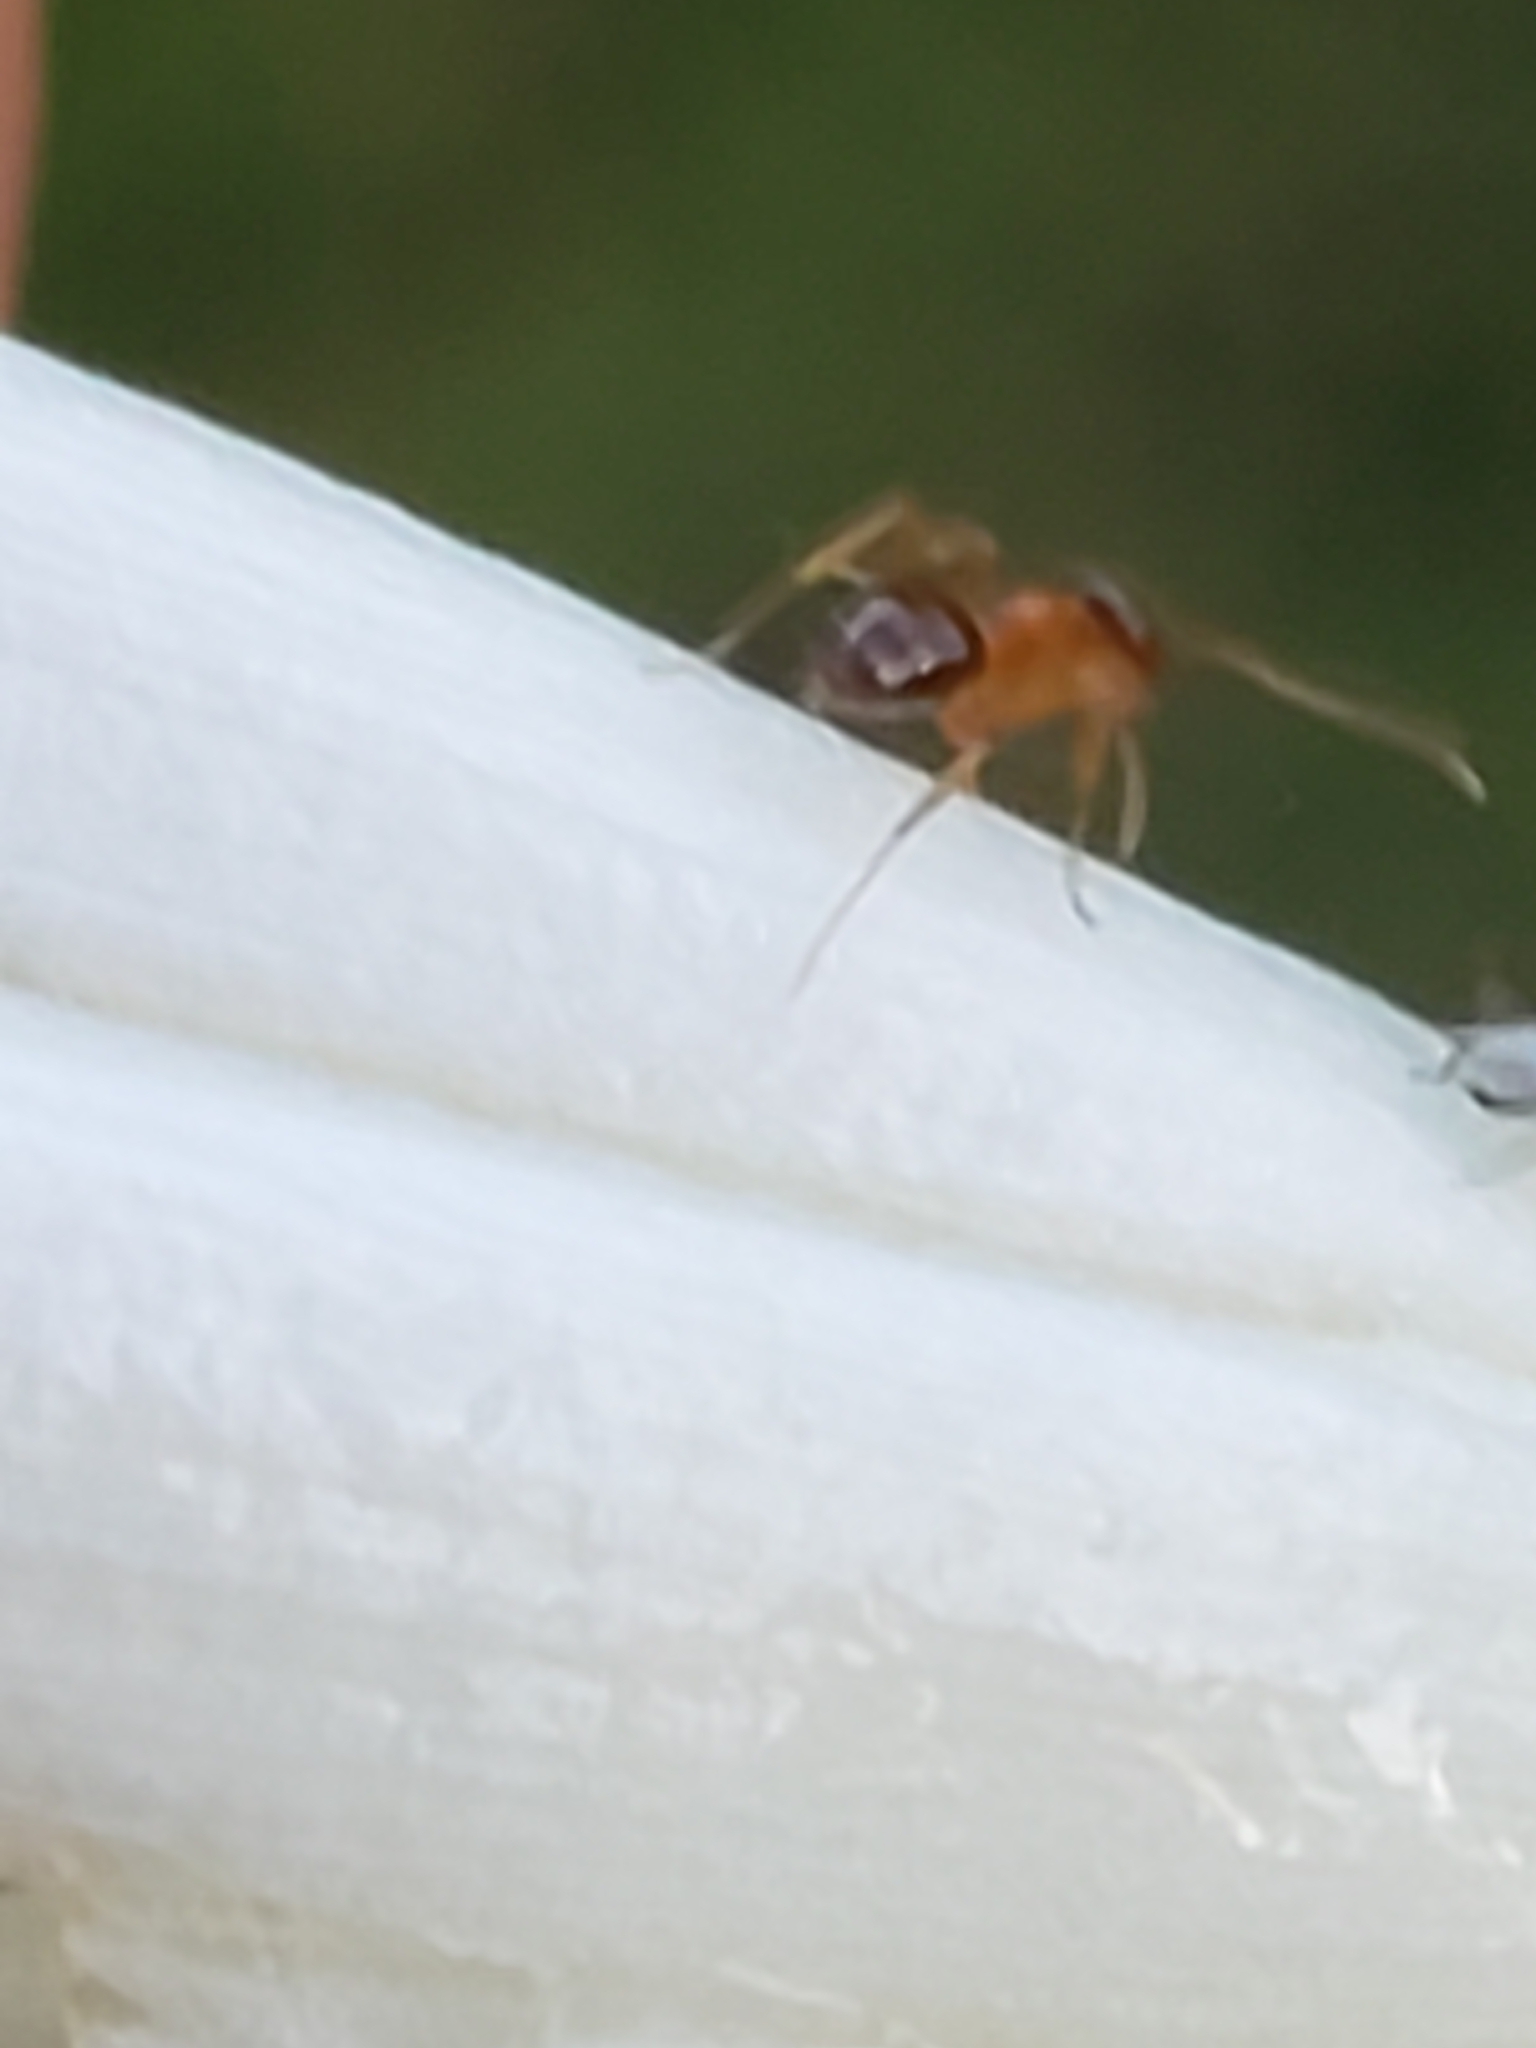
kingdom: Animalia
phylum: Arthropoda
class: Insecta
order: Hymenoptera
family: Formicidae
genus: Paratrechina
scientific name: Paratrechina flavipes
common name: Eastern asian formicine ant
